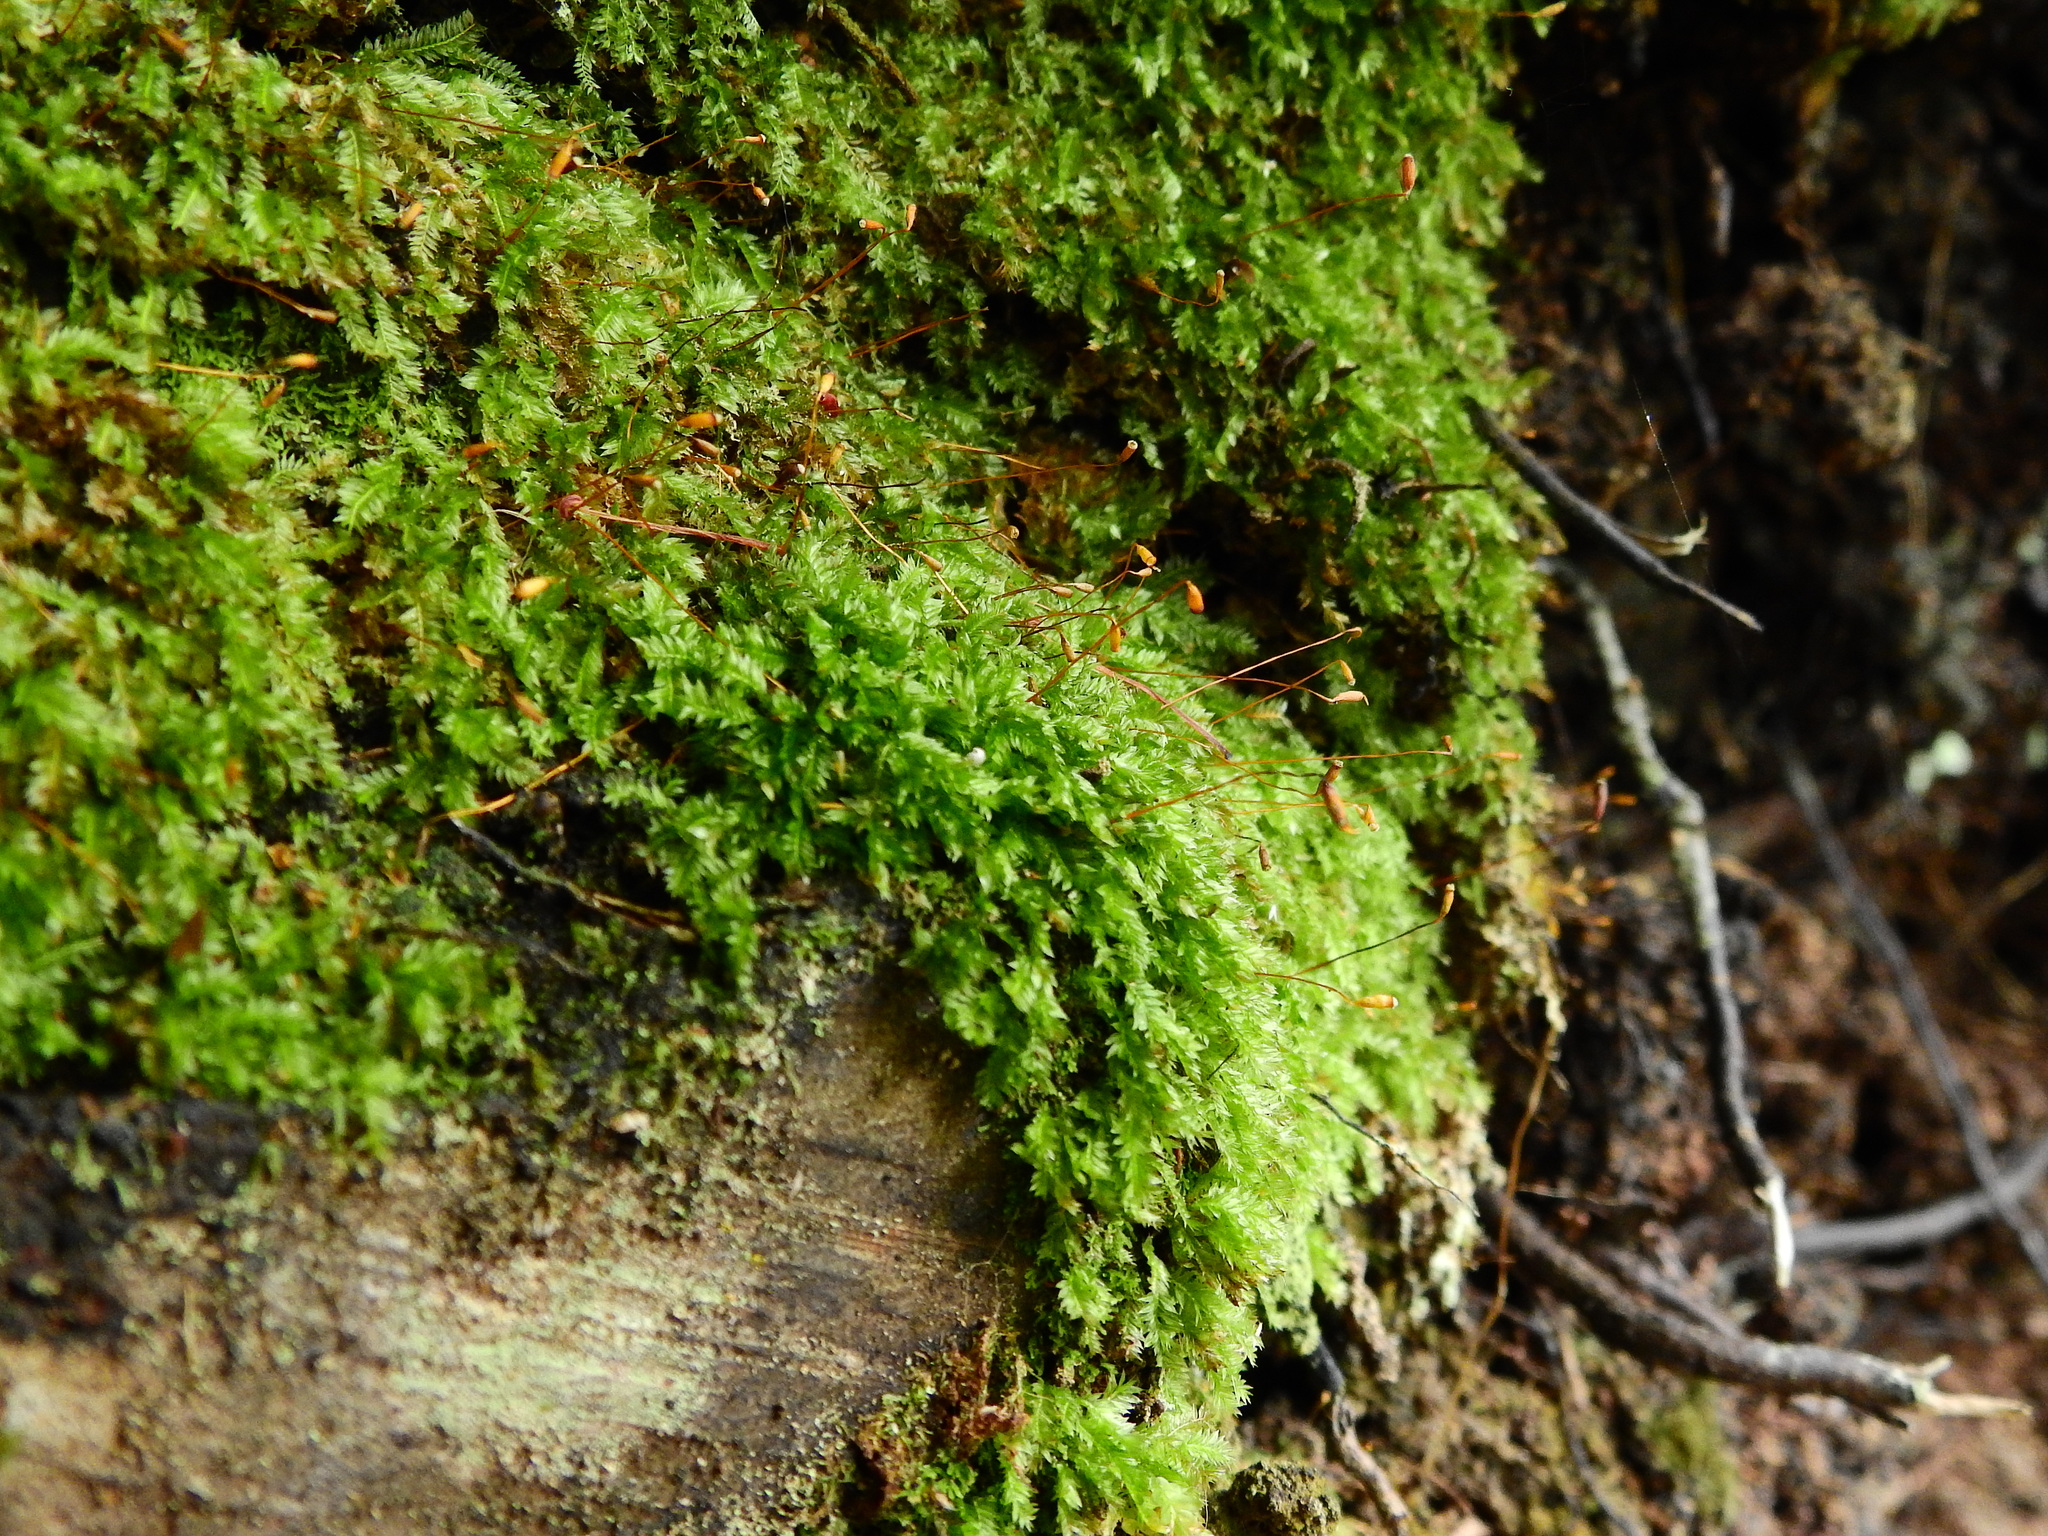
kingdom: Plantae
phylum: Bryophyta
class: Bryopsida
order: Aulacomniales
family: Aulacomniaceae
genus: Hymenodontopsis
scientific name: Hymenodontopsis bifaria
